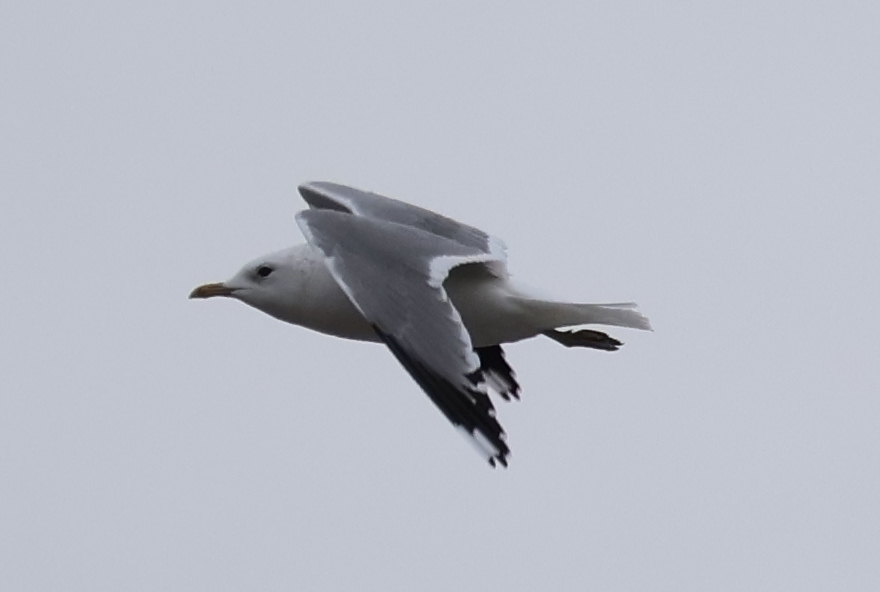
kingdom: Animalia
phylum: Chordata
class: Aves
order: Charadriiformes
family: Laridae
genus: Larus
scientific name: Larus canus
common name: Mew gull
